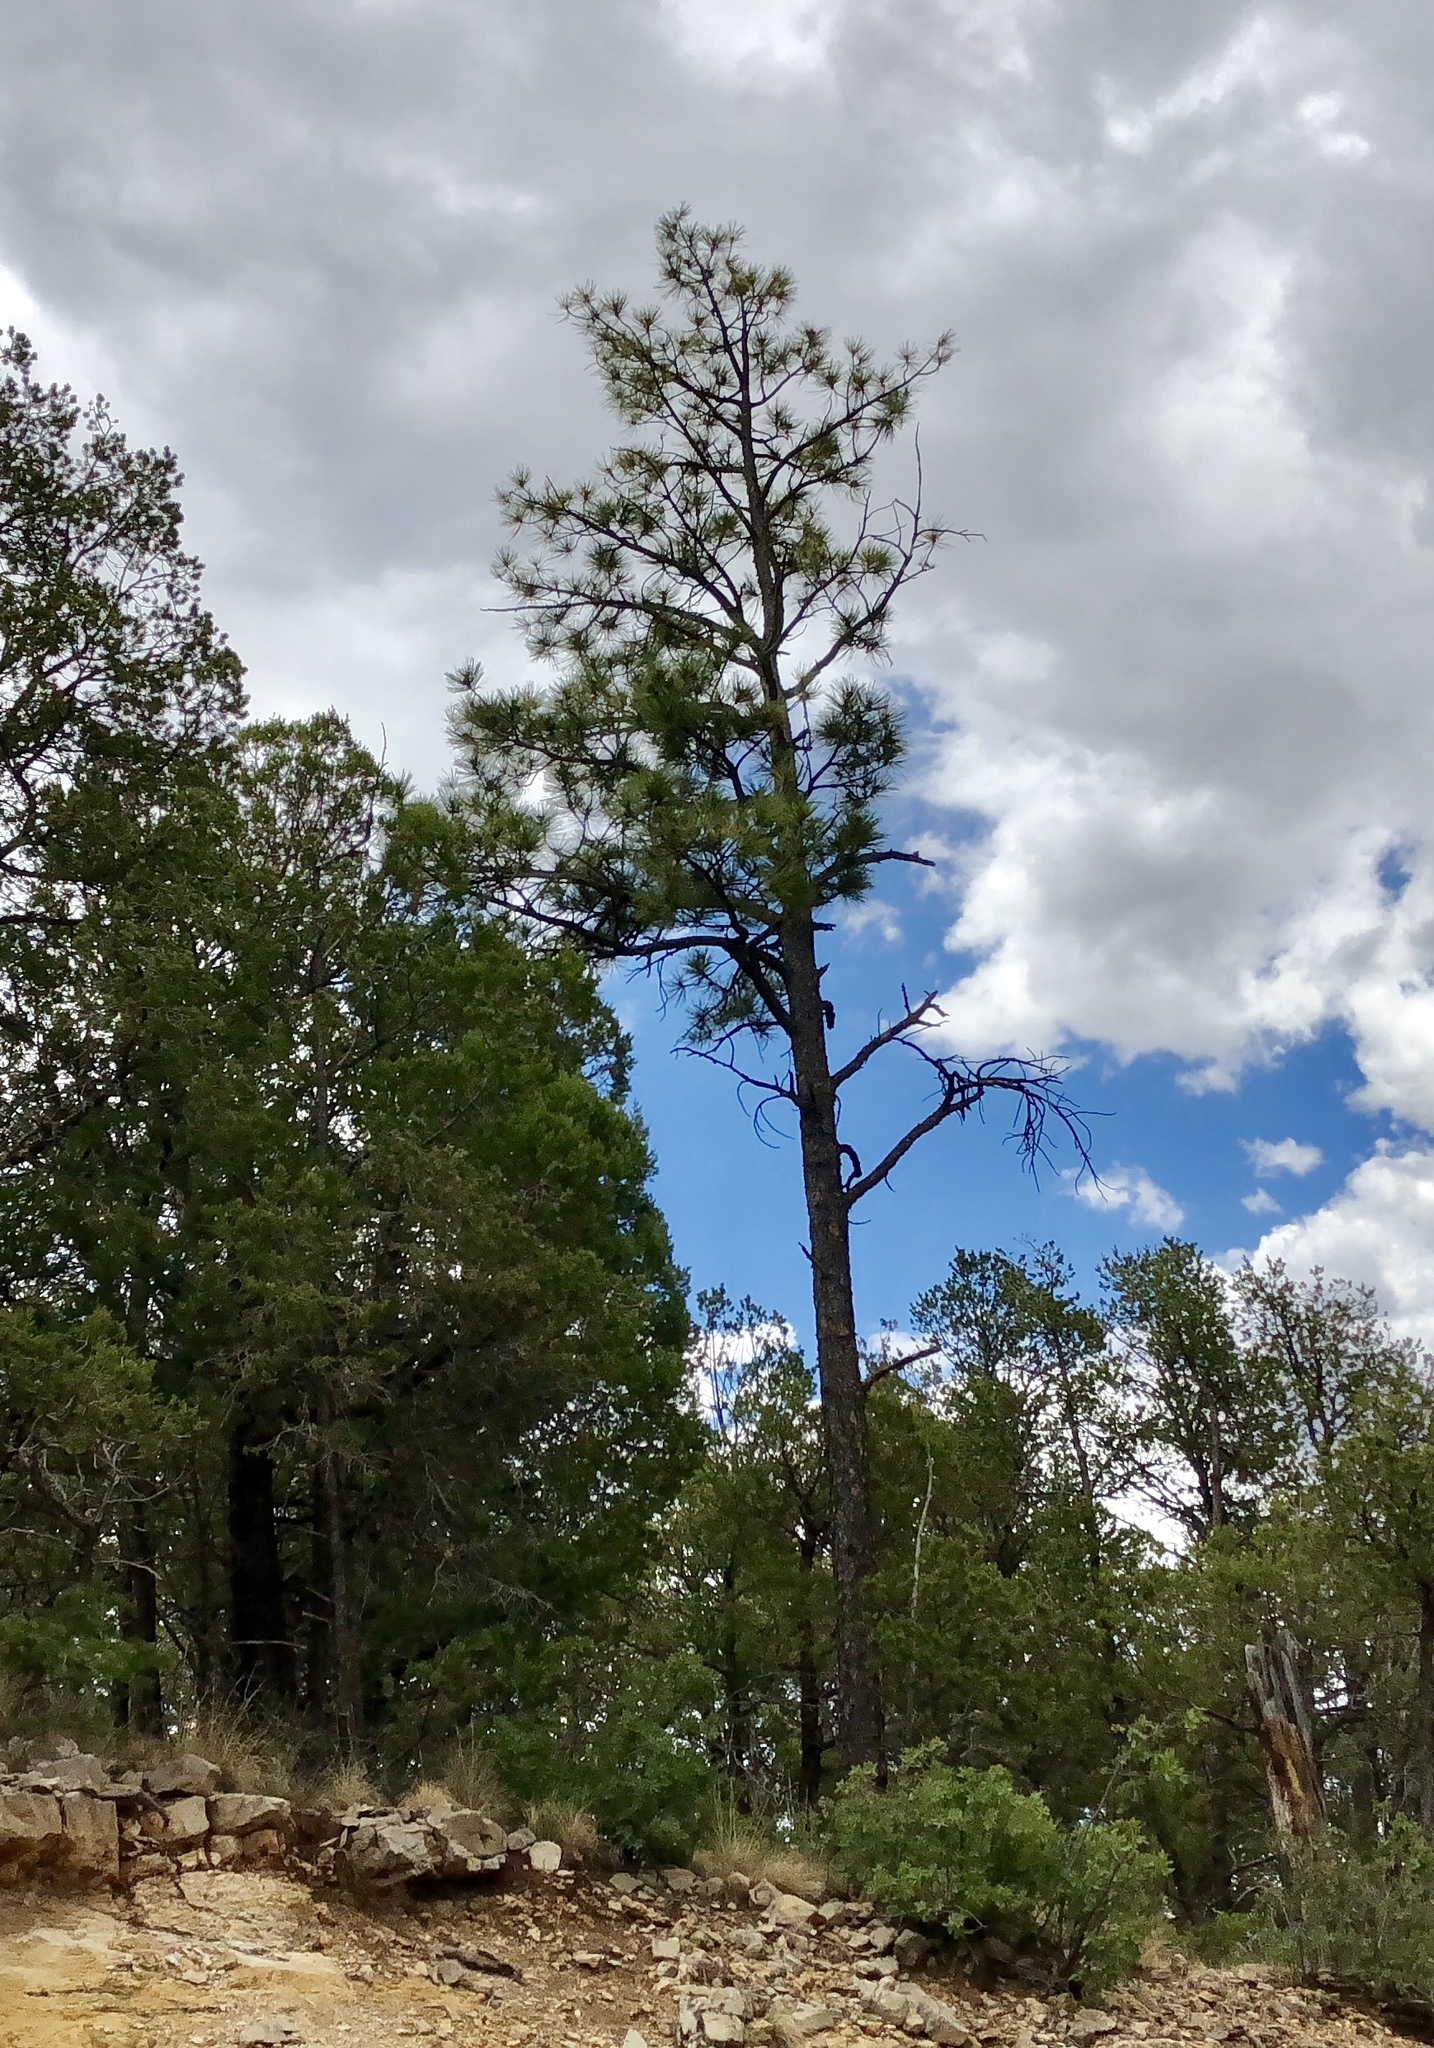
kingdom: Plantae
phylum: Tracheophyta
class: Pinopsida
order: Pinales
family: Pinaceae
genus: Pinus
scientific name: Pinus ponderosa
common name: Western yellow-pine
